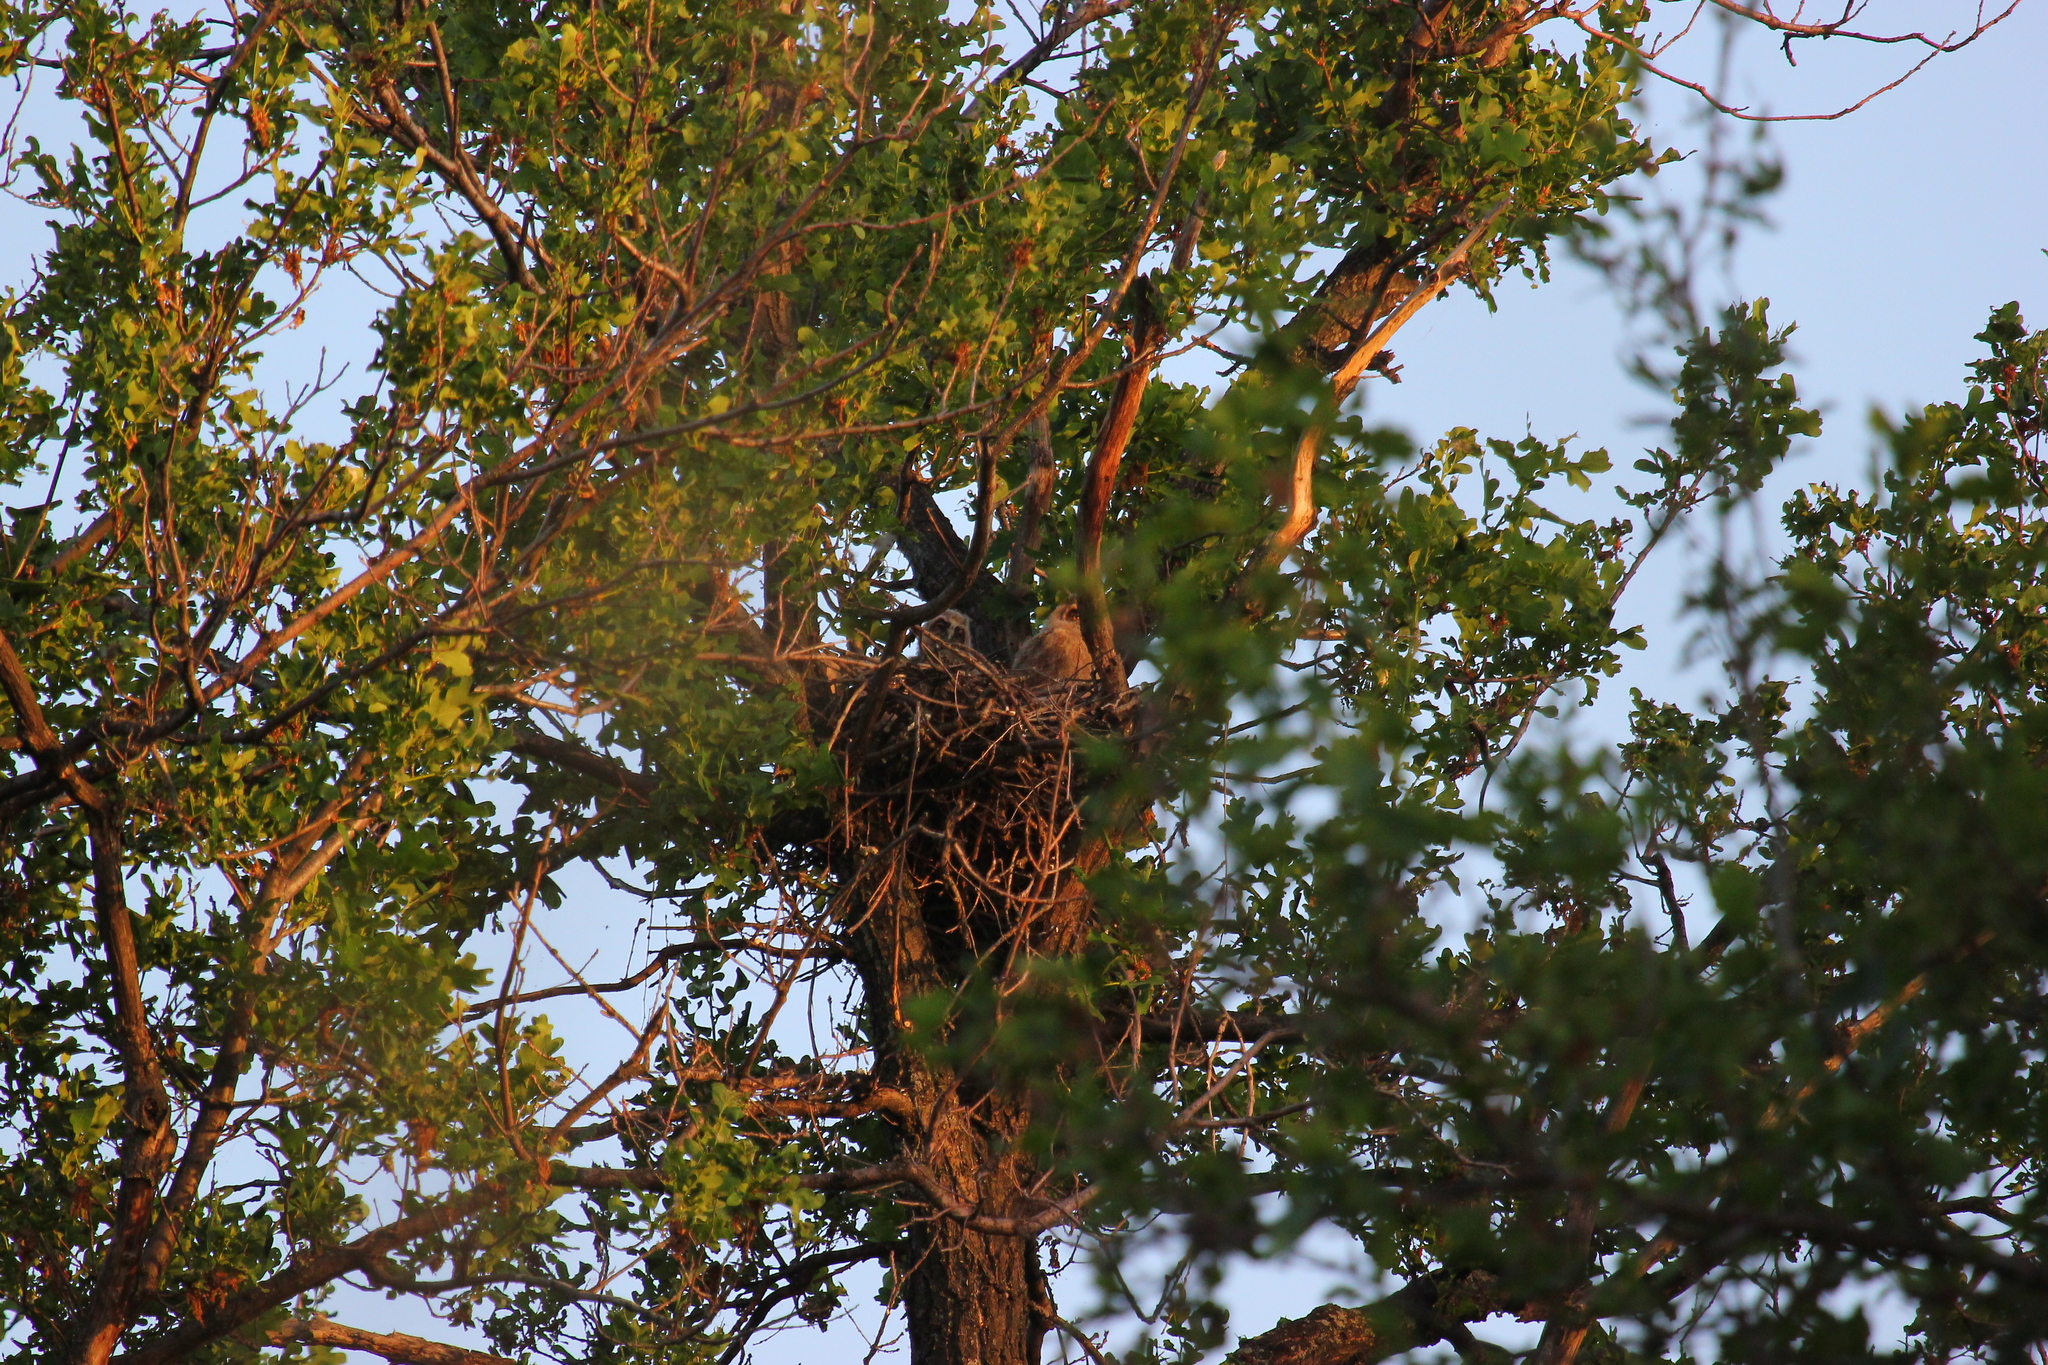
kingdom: Animalia
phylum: Chordata
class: Aves
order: Strigiformes
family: Strigidae
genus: Asio
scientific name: Asio otus
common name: Long-eared owl
